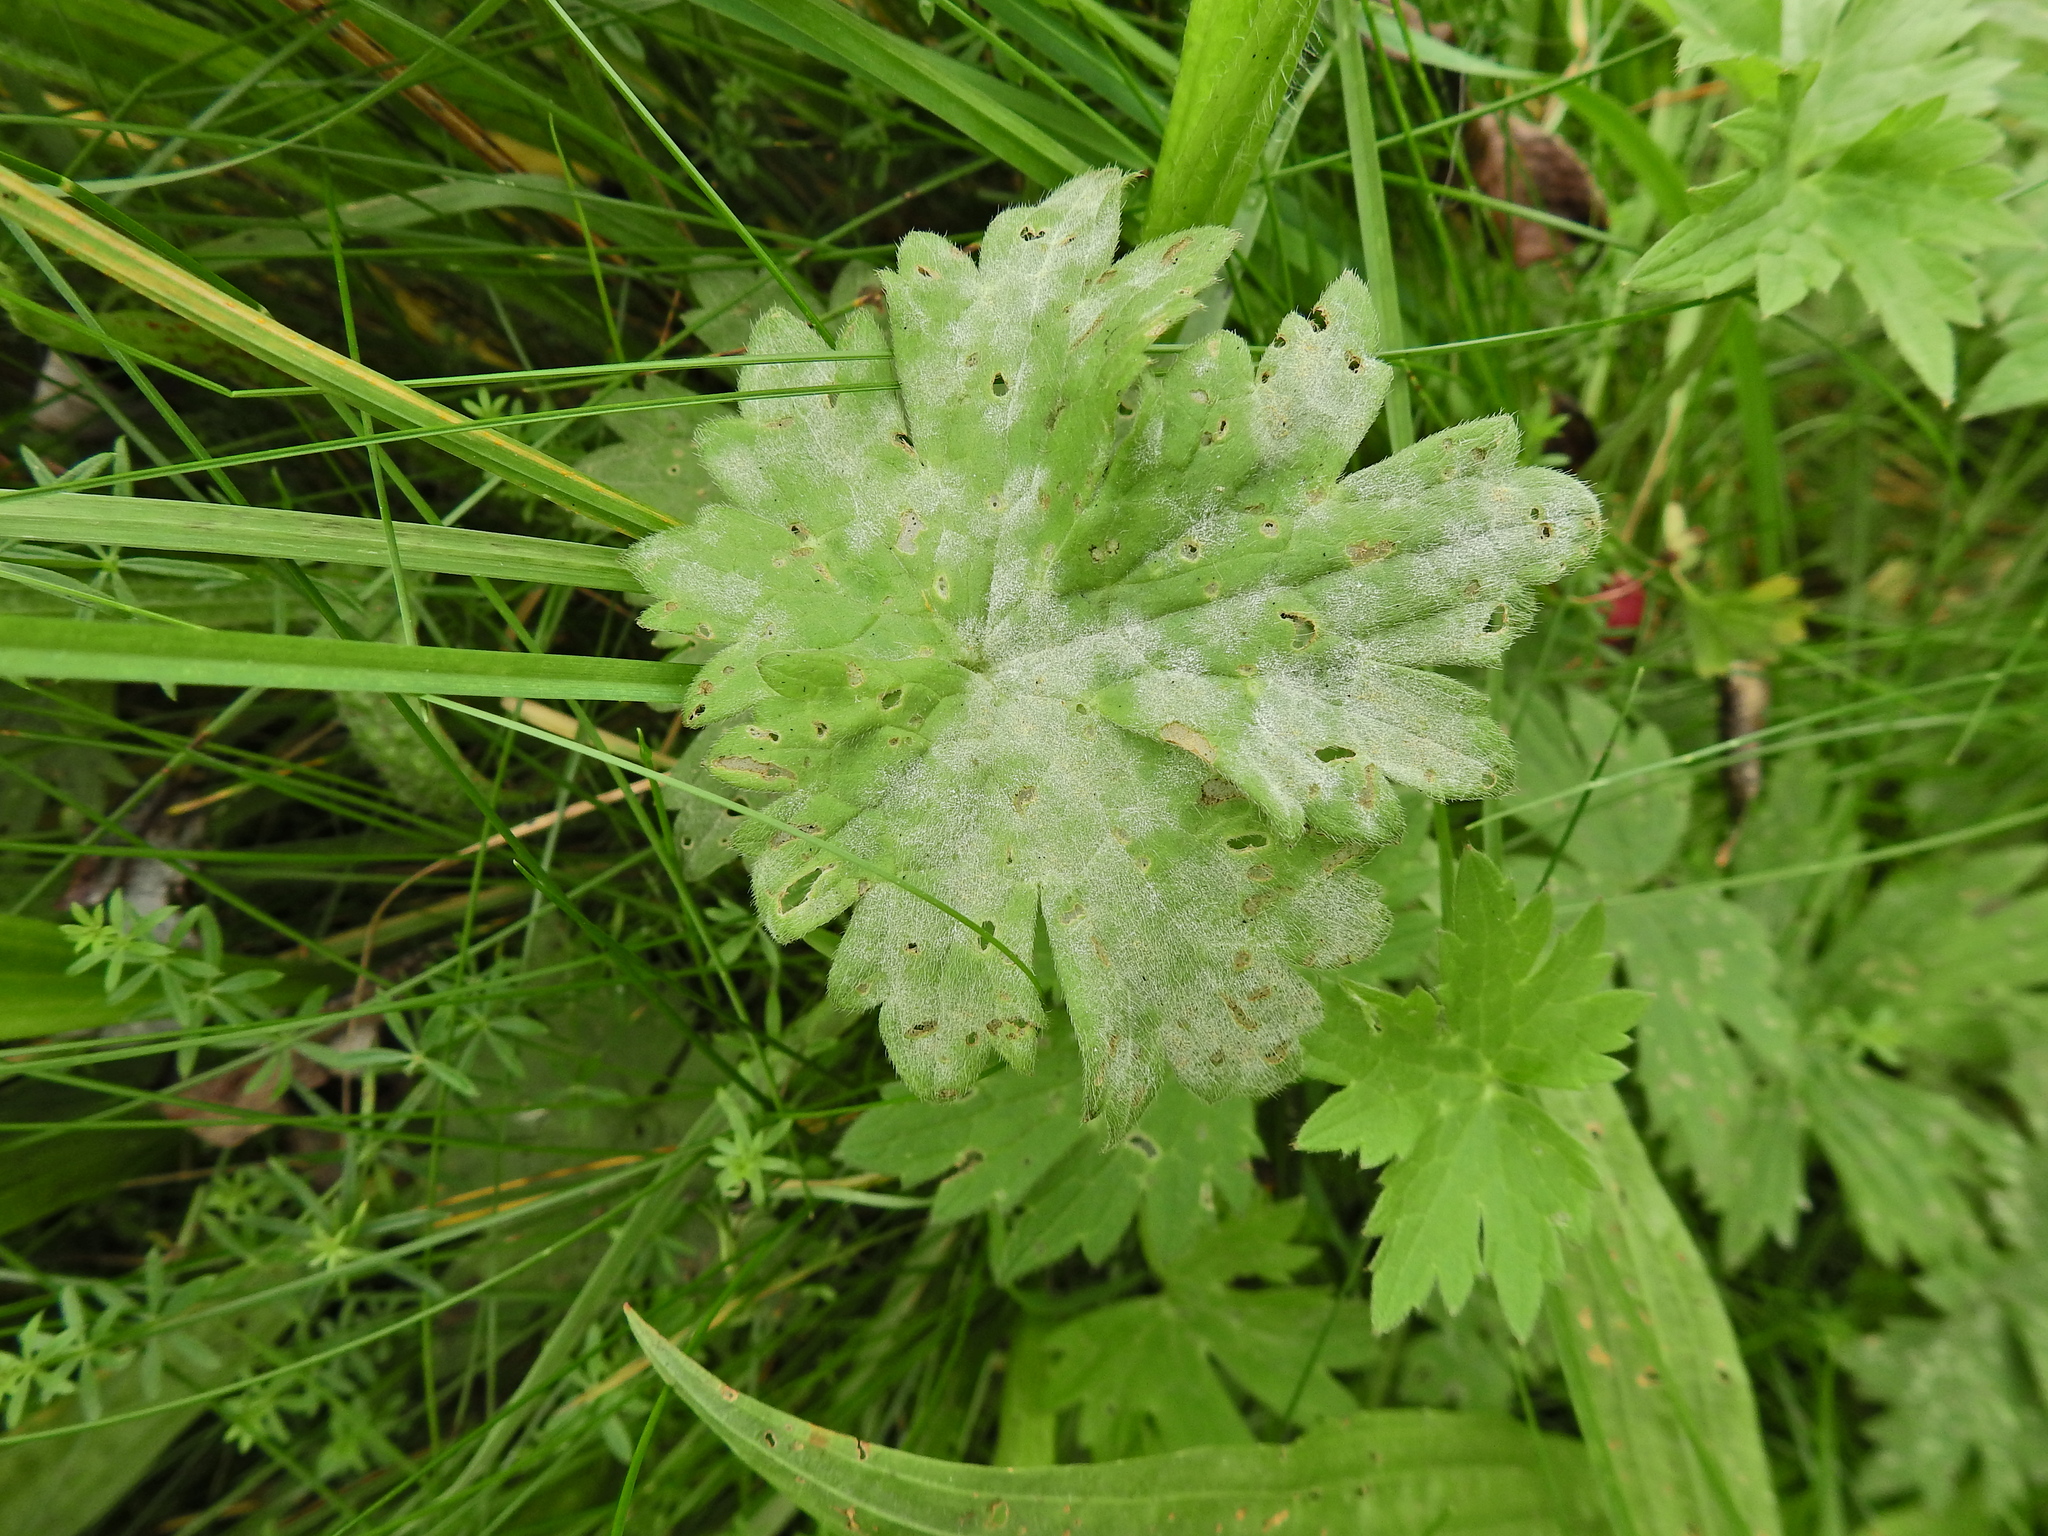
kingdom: Fungi
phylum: Ascomycota
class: Leotiomycetes
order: Helotiales
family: Erysiphaceae
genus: Erysiphe
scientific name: Erysiphe aquilegiae
